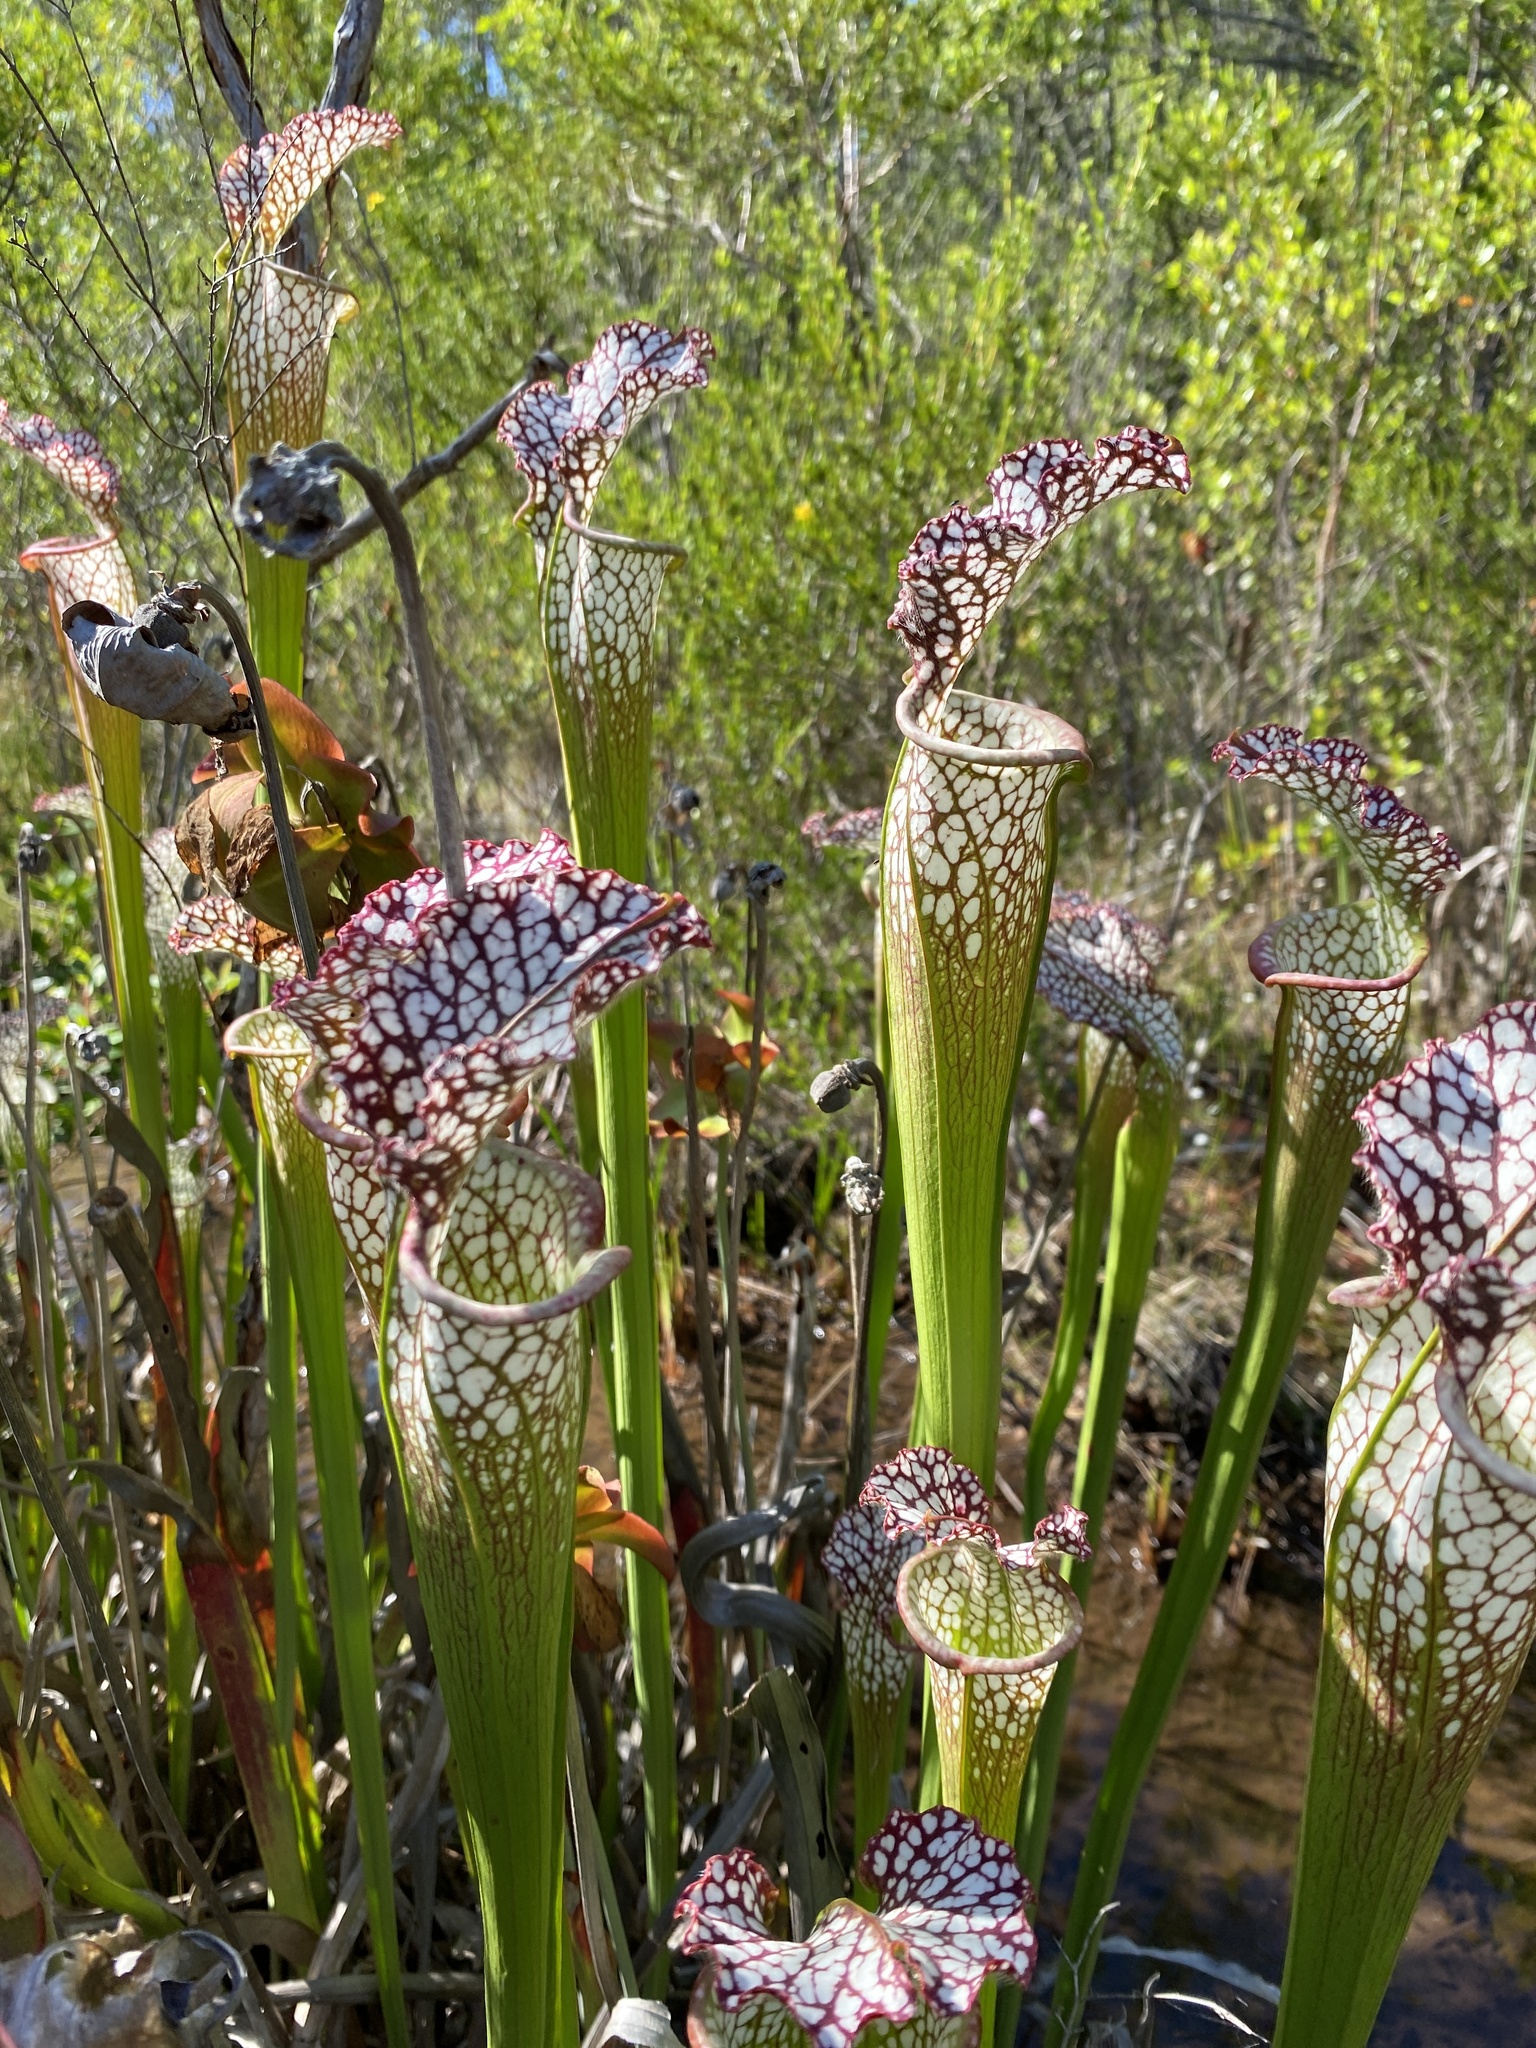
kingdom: Plantae
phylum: Tracheophyta
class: Magnoliopsida
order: Ericales
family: Sarraceniaceae
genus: Sarracenia
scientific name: Sarracenia leucophylla
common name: Purple trumpetleaf
